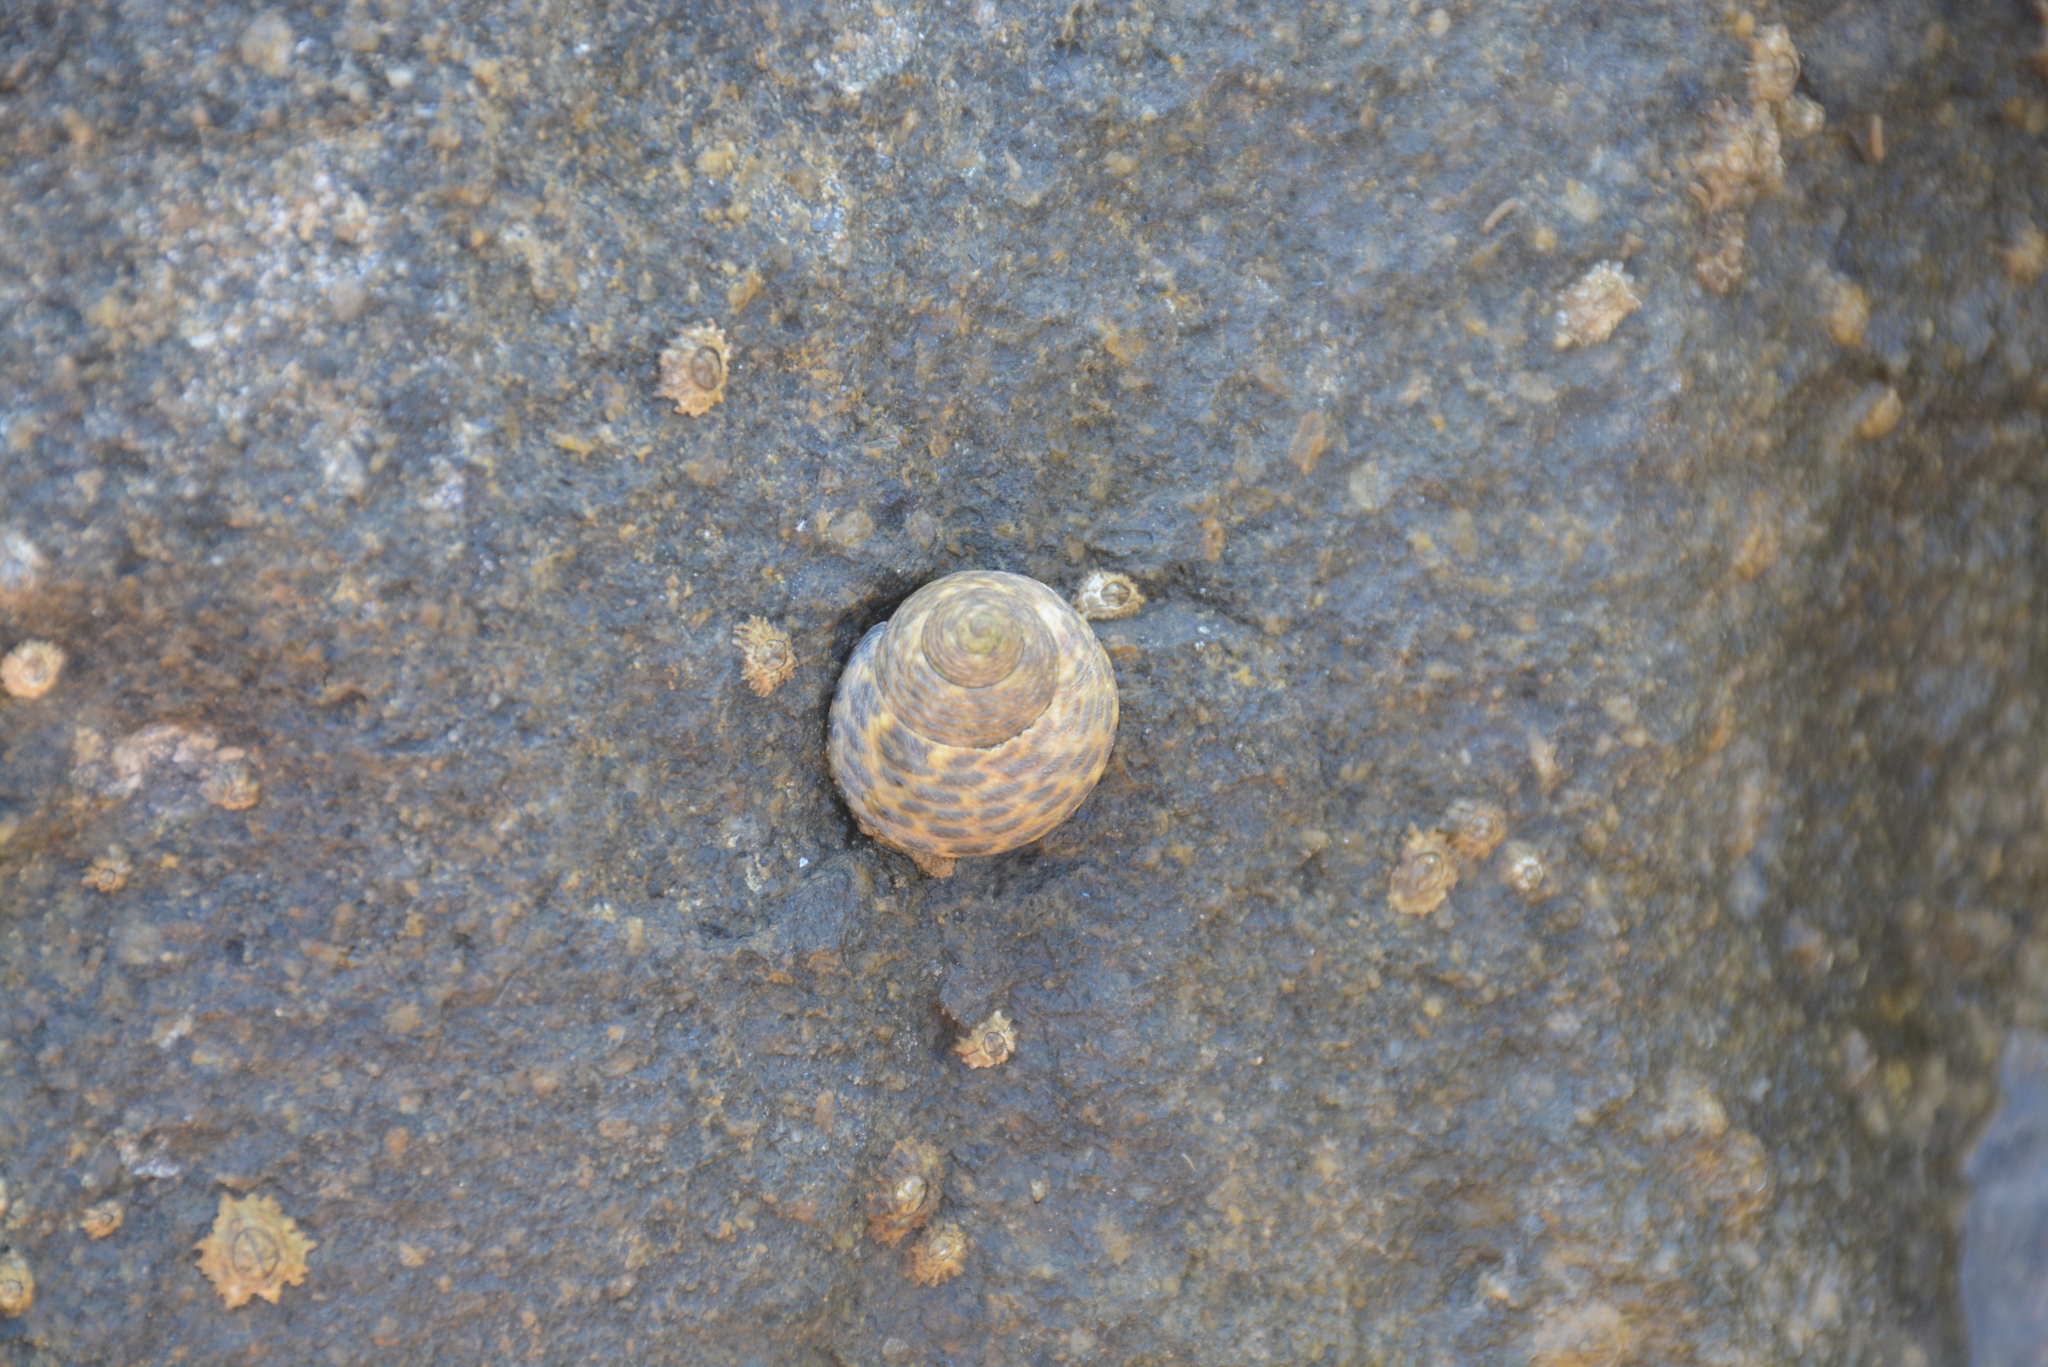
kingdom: Animalia
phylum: Mollusca
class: Gastropoda
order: Trochida
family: Trochidae
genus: Phorcus
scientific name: Phorcus turbinatus
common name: Turbinate monodont
